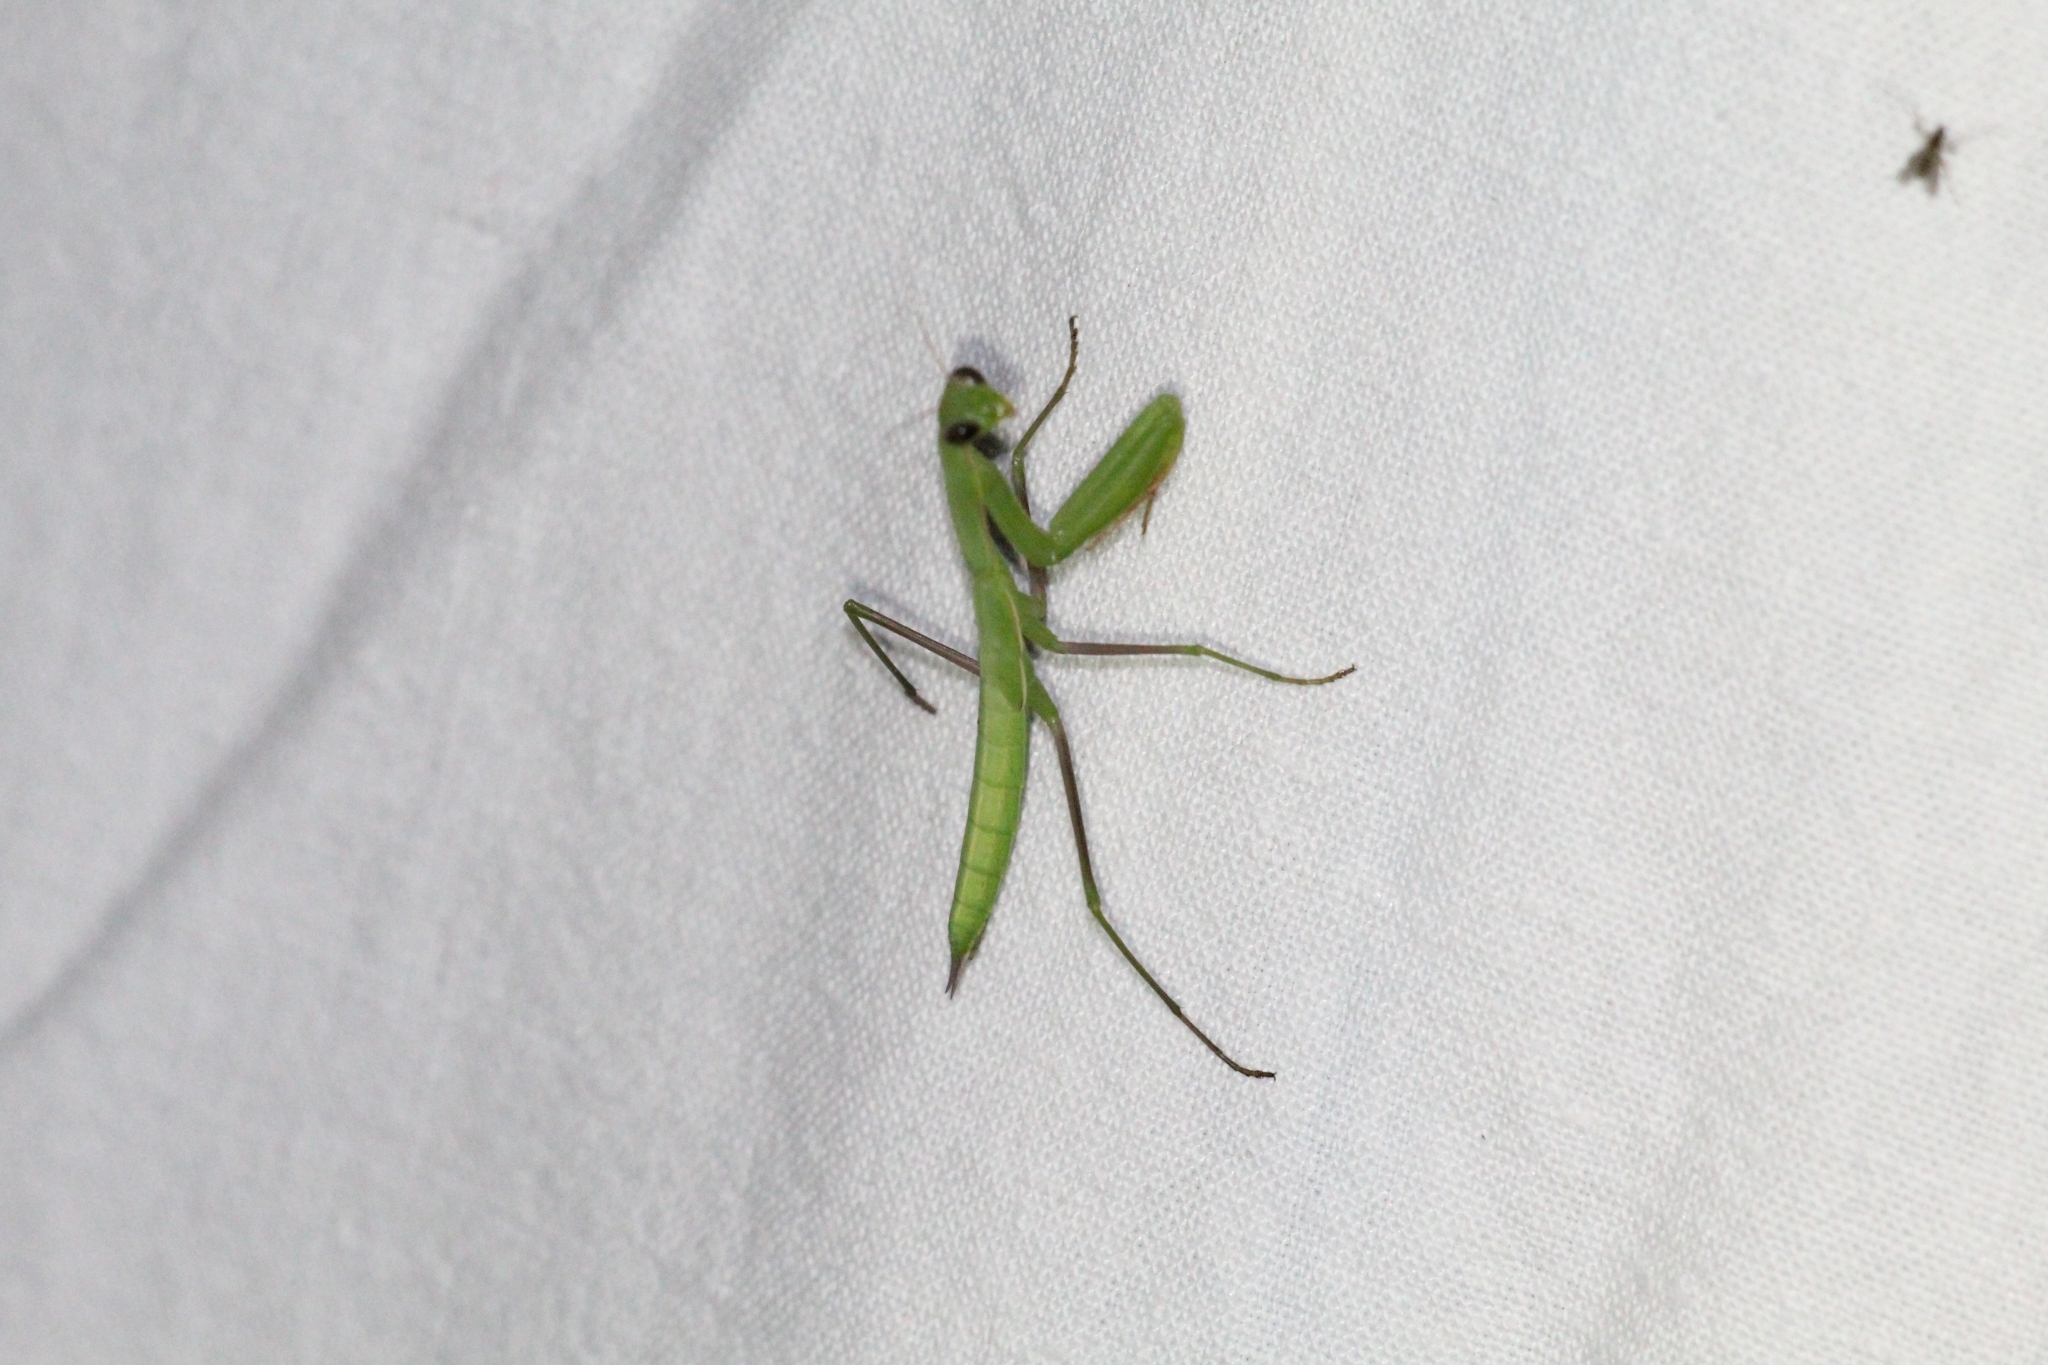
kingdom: Animalia
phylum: Arthropoda
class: Insecta
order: Mantodea
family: Mantidae
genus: Mantis
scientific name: Mantis religiosa
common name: Praying mantis
